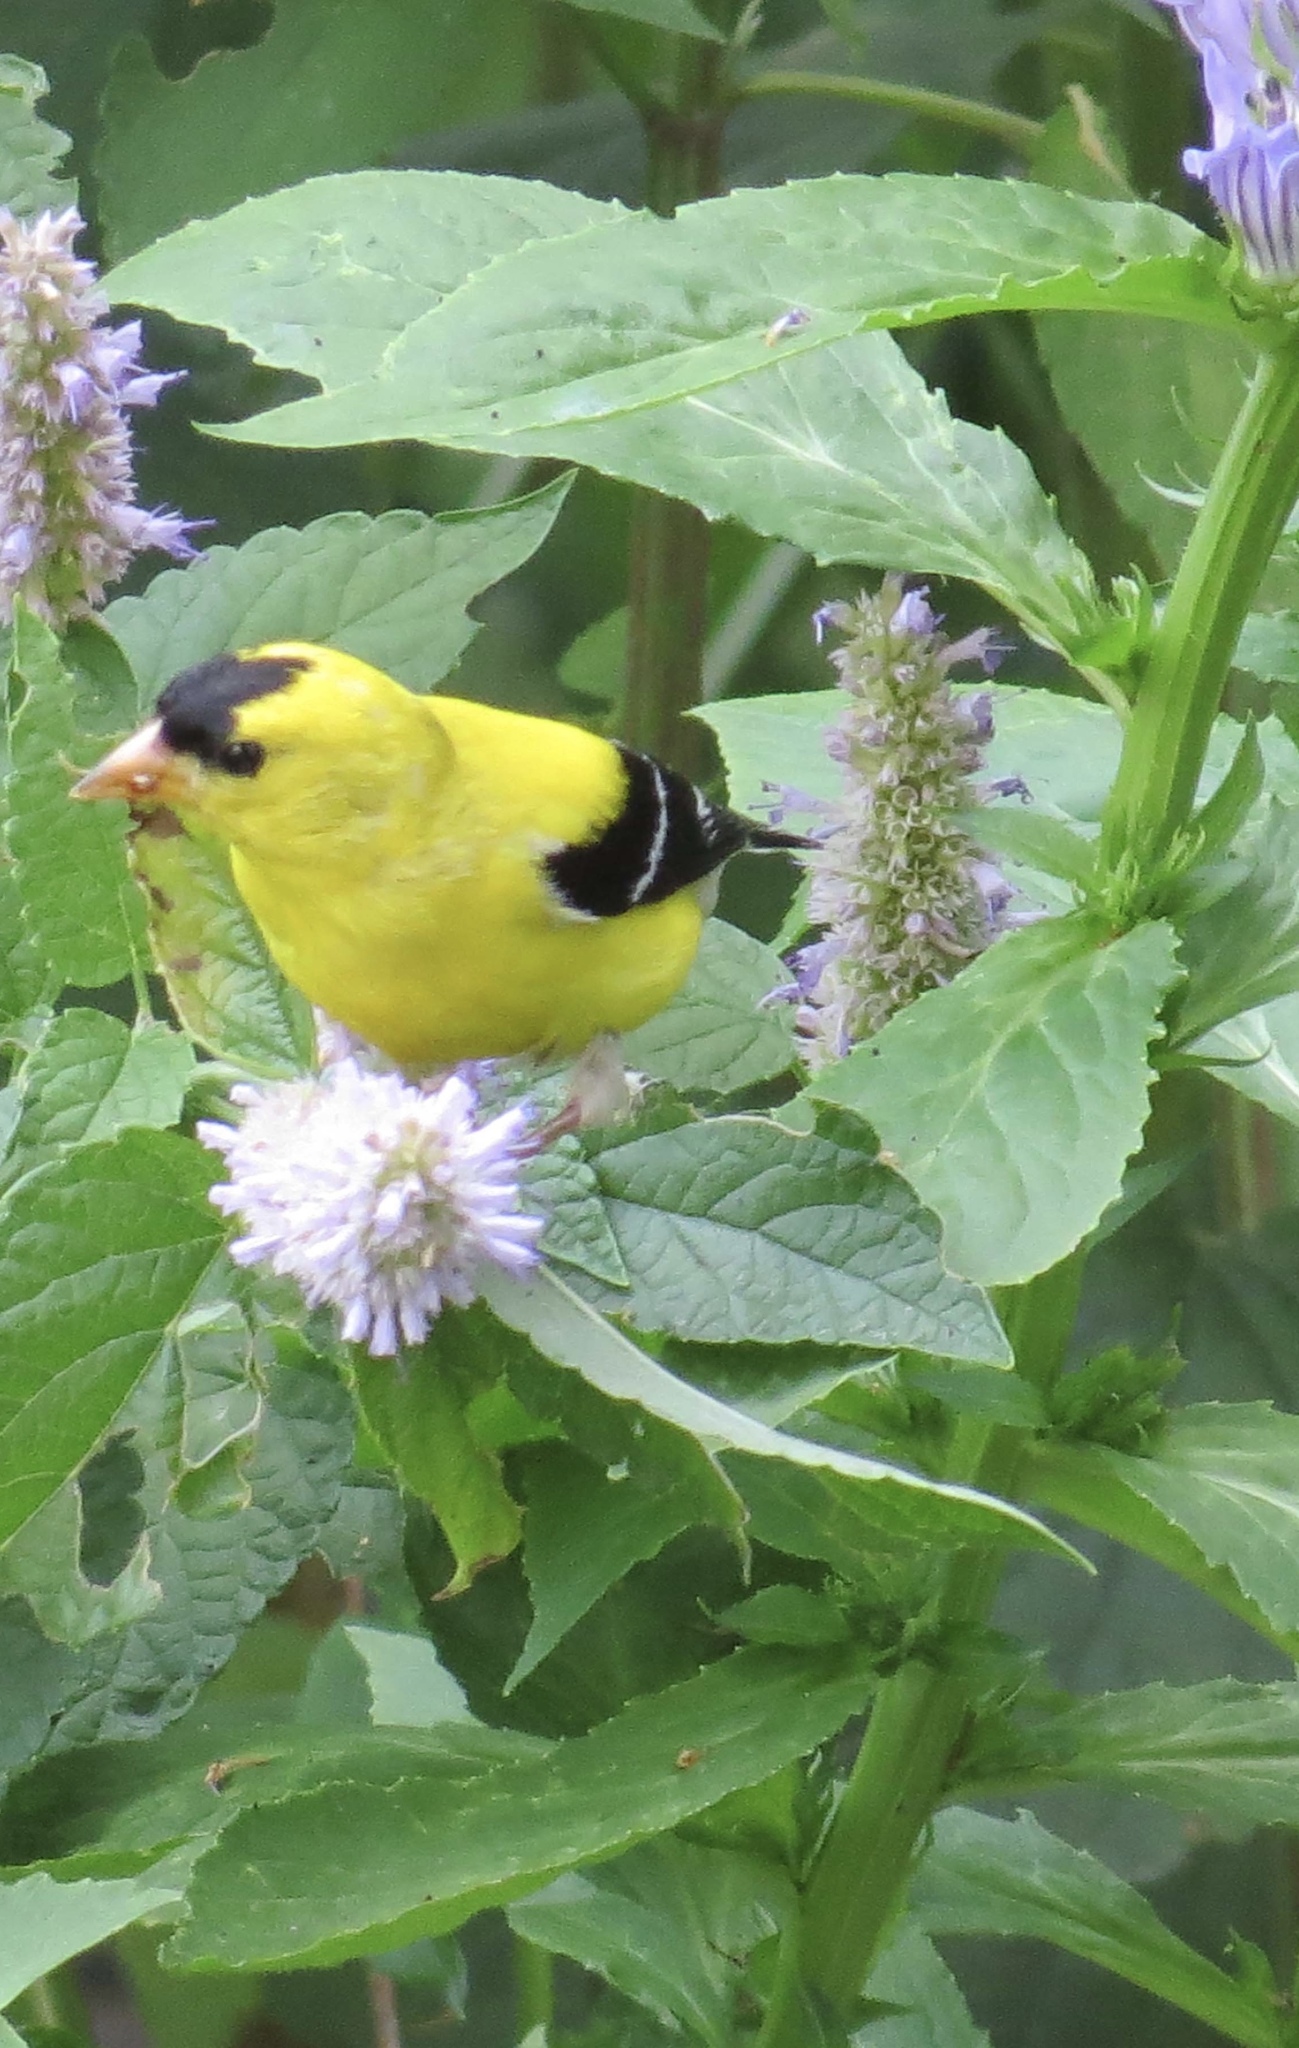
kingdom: Animalia
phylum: Chordata
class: Aves
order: Passeriformes
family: Fringillidae
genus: Spinus
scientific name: Spinus tristis
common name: American goldfinch
